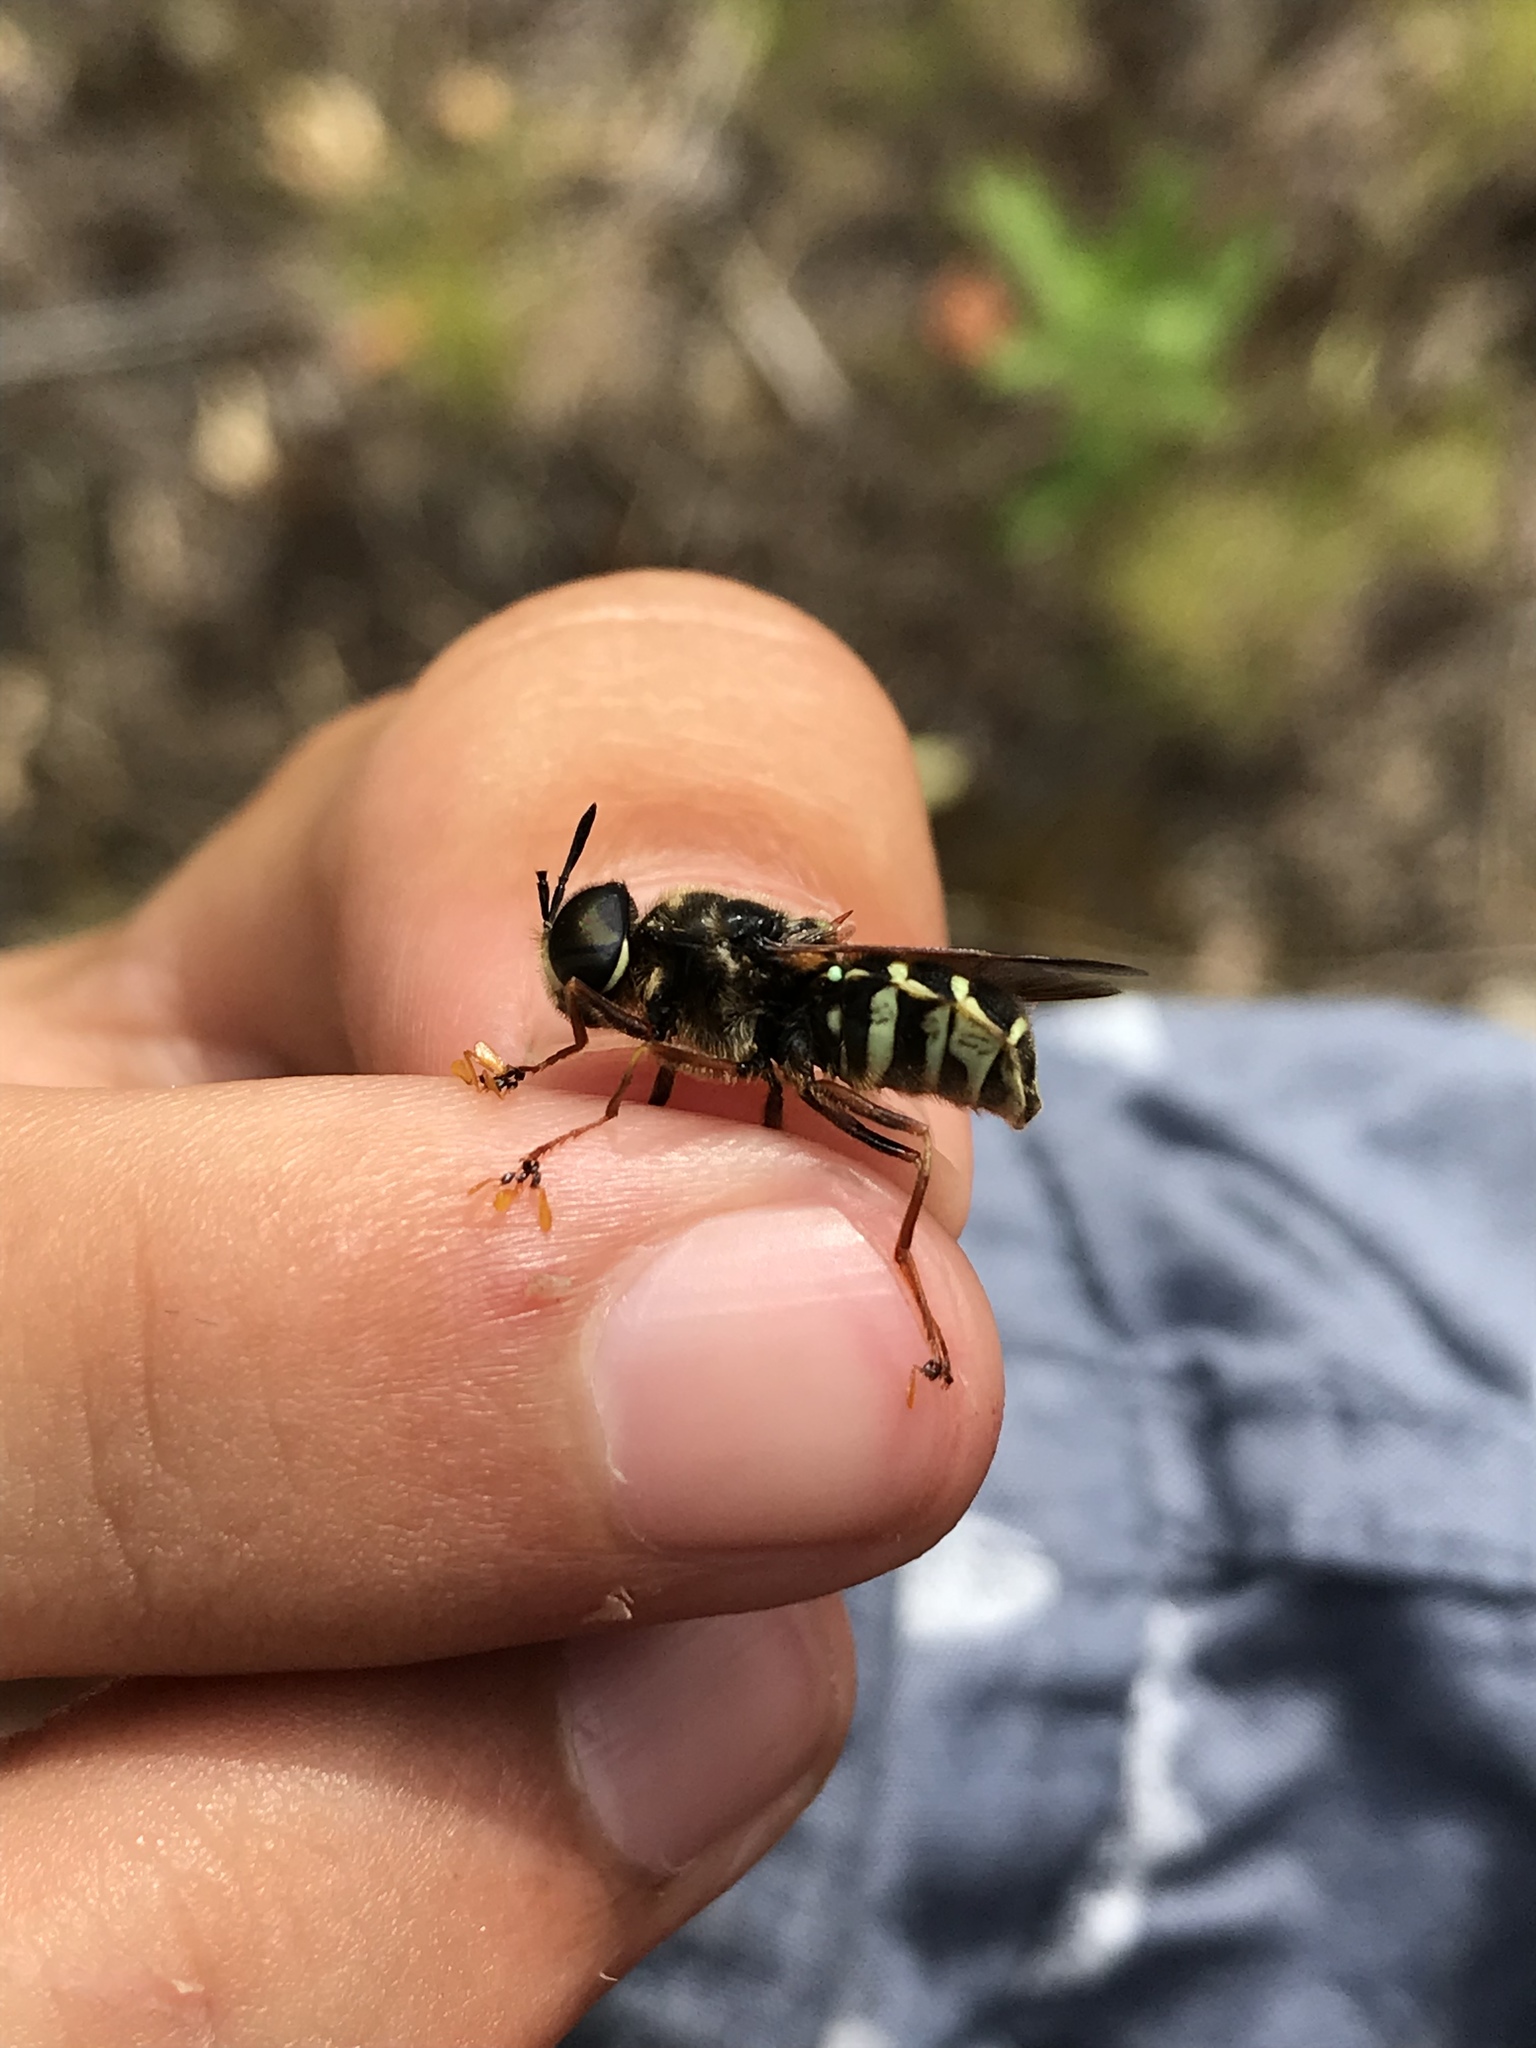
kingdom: Animalia
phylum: Arthropoda
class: Insecta
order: Diptera
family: Stratiomyidae
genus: Stratiomys
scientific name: Stratiomys badia
